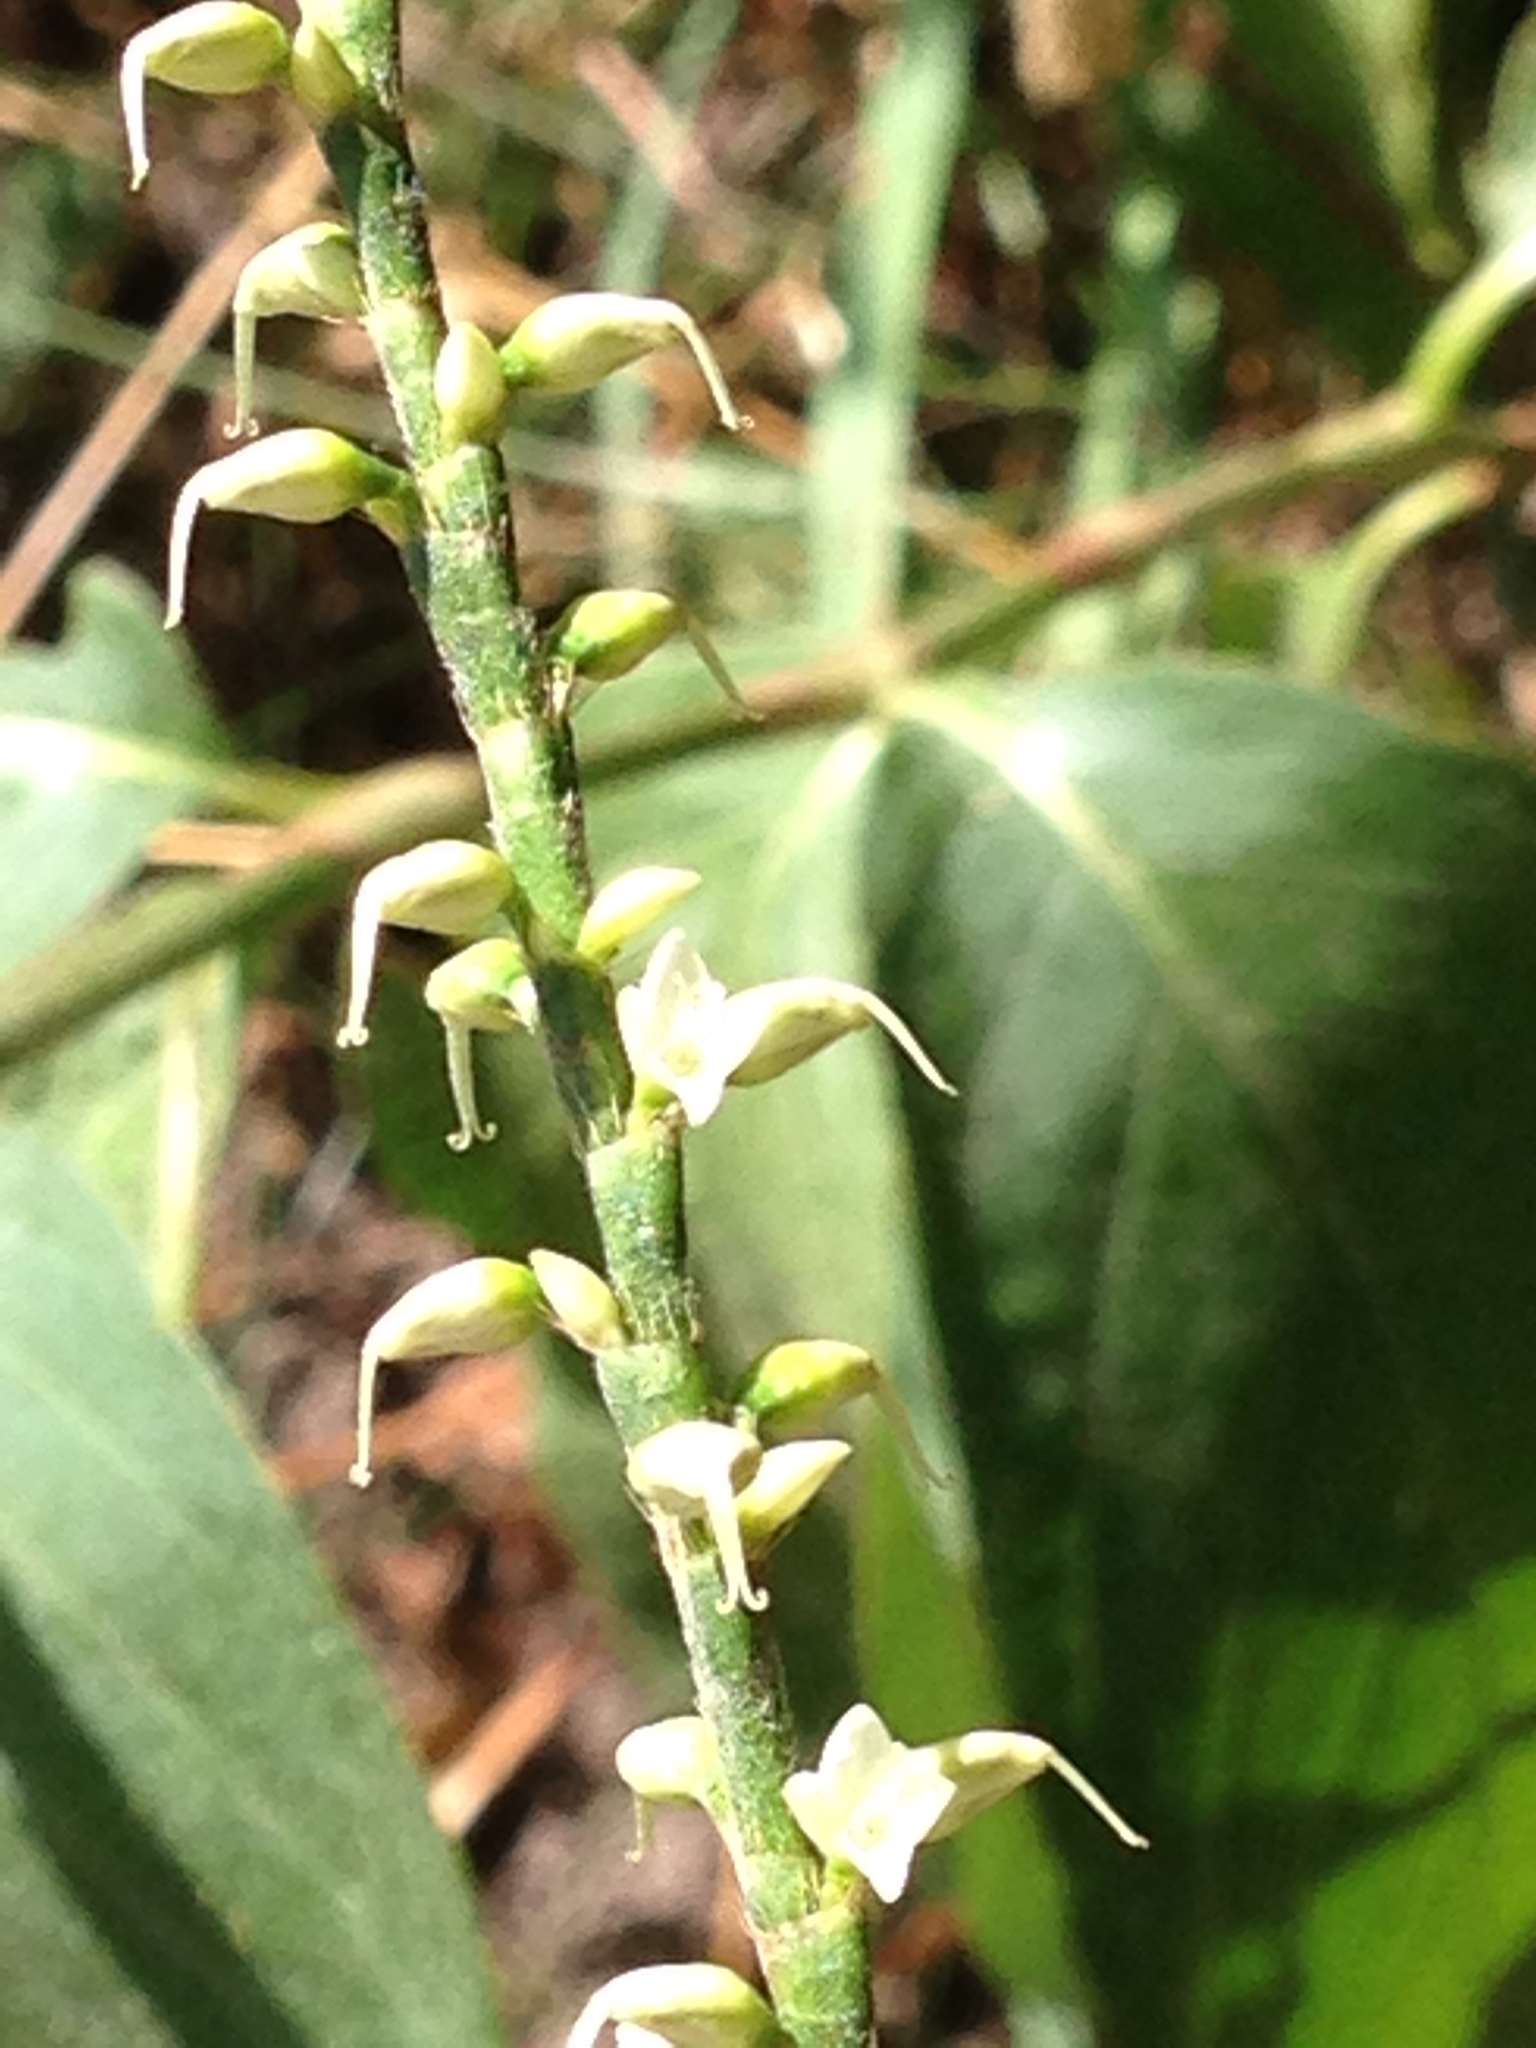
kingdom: Plantae
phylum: Tracheophyta
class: Magnoliopsida
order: Caryophyllales
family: Polygonaceae
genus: Persicaria
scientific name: Persicaria virginiana
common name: Jumpseed
